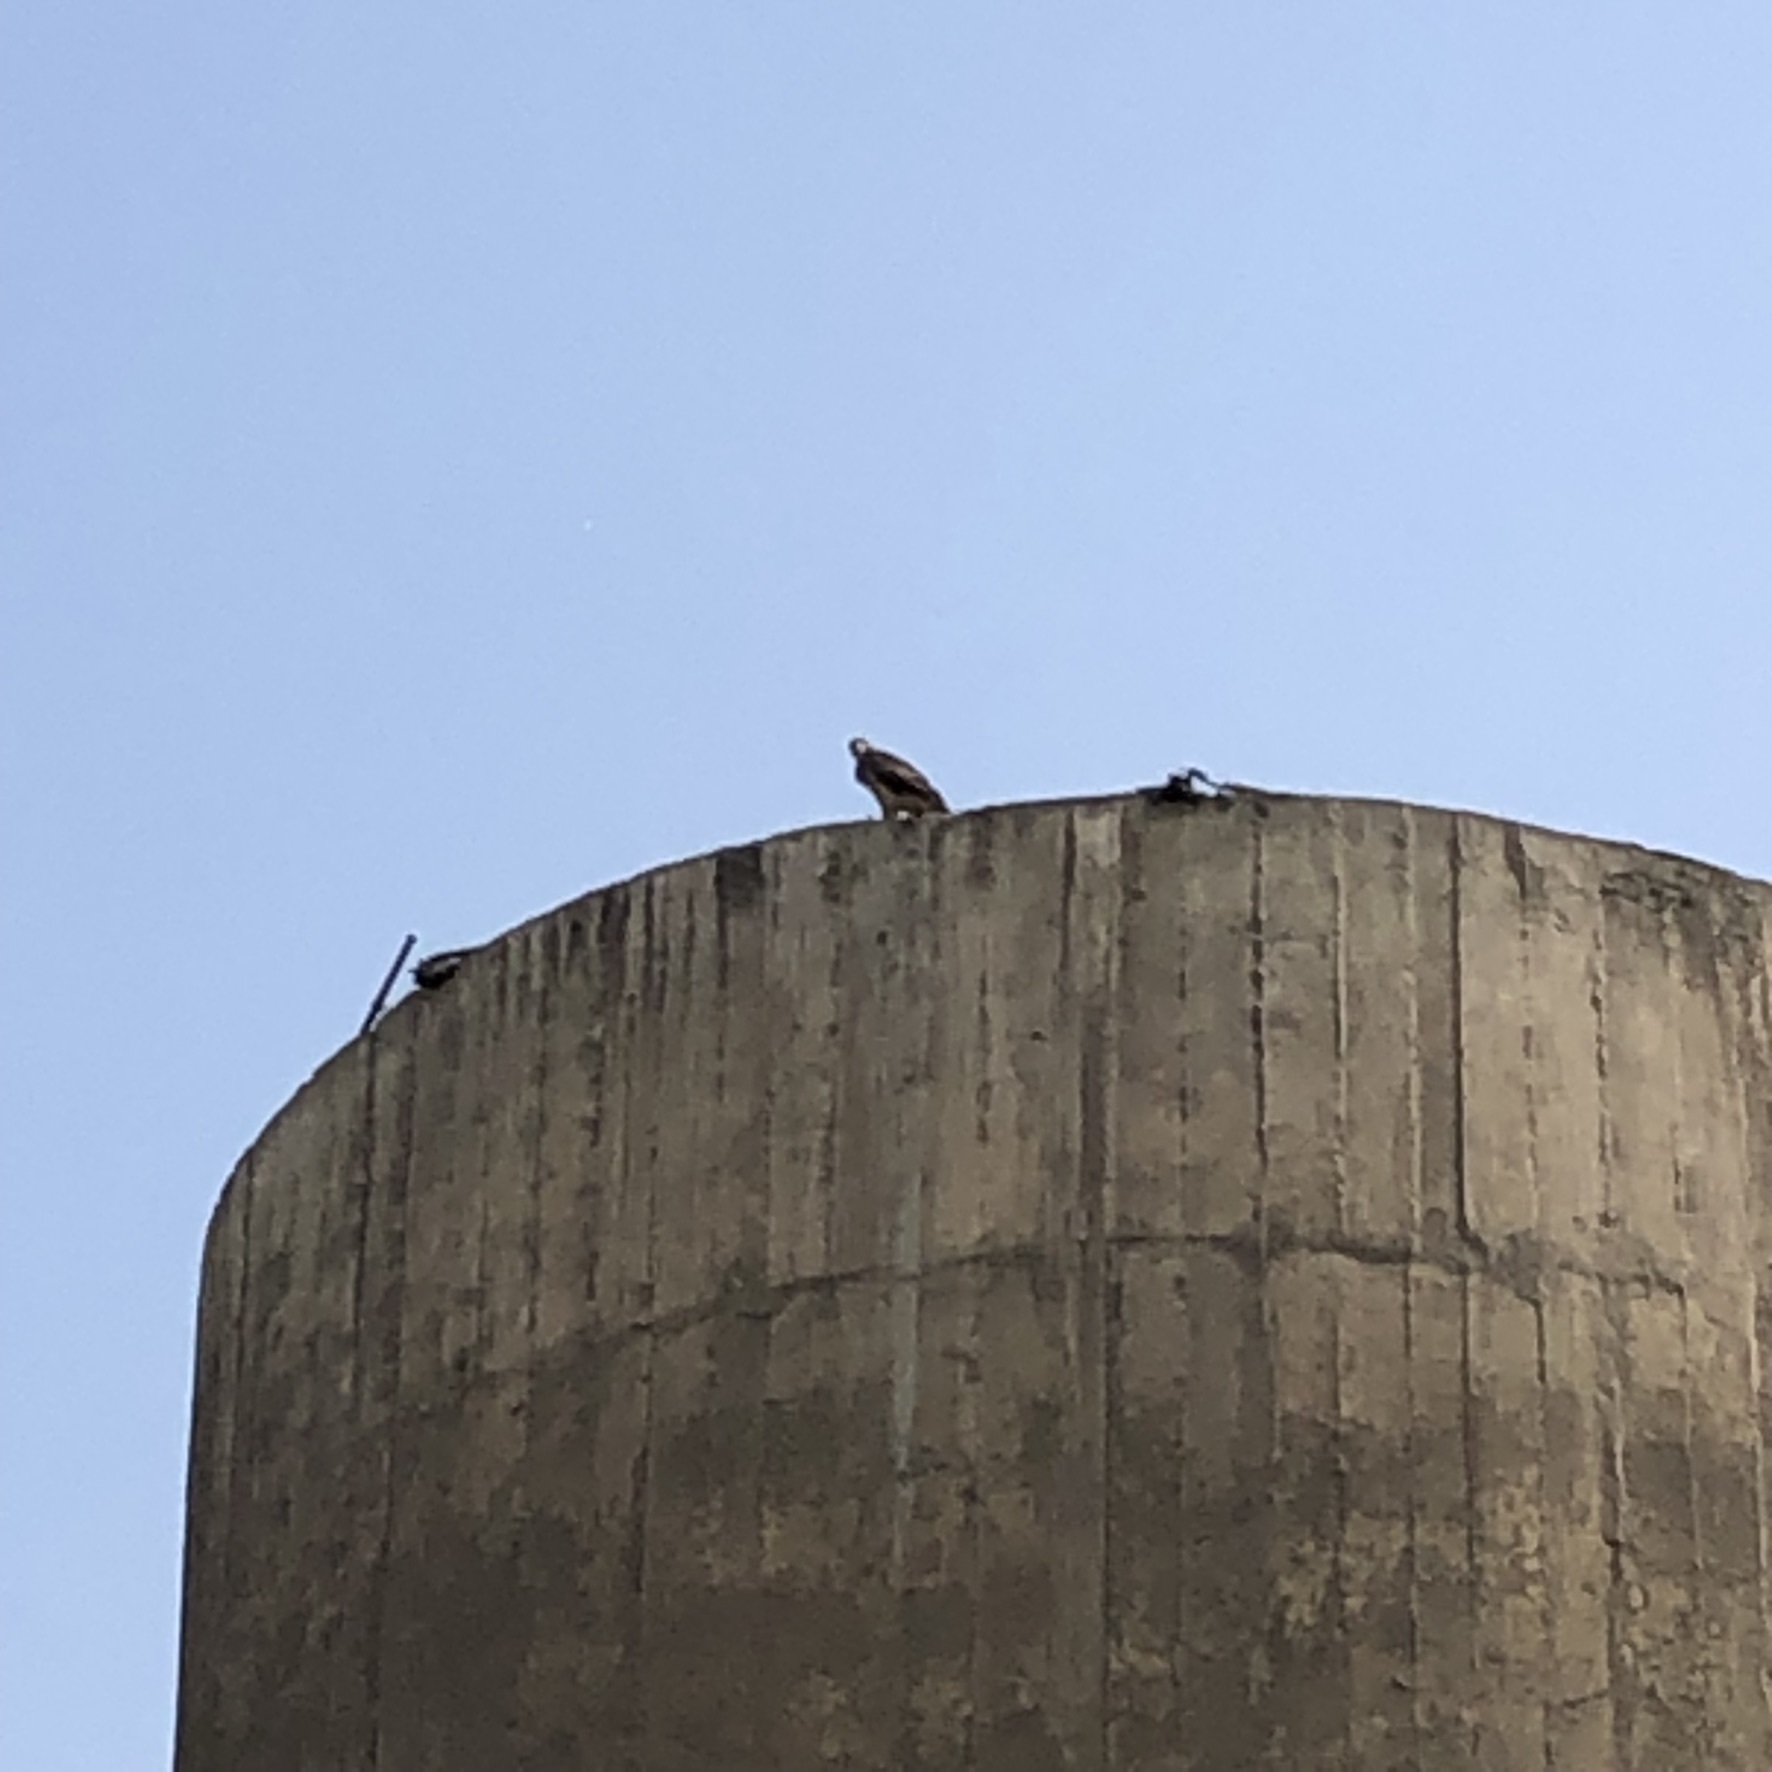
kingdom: Animalia
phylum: Chordata
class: Aves
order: Accipitriformes
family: Accipitridae
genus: Parabuteo
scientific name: Parabuteo unicinctus
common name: Harris's hawk
